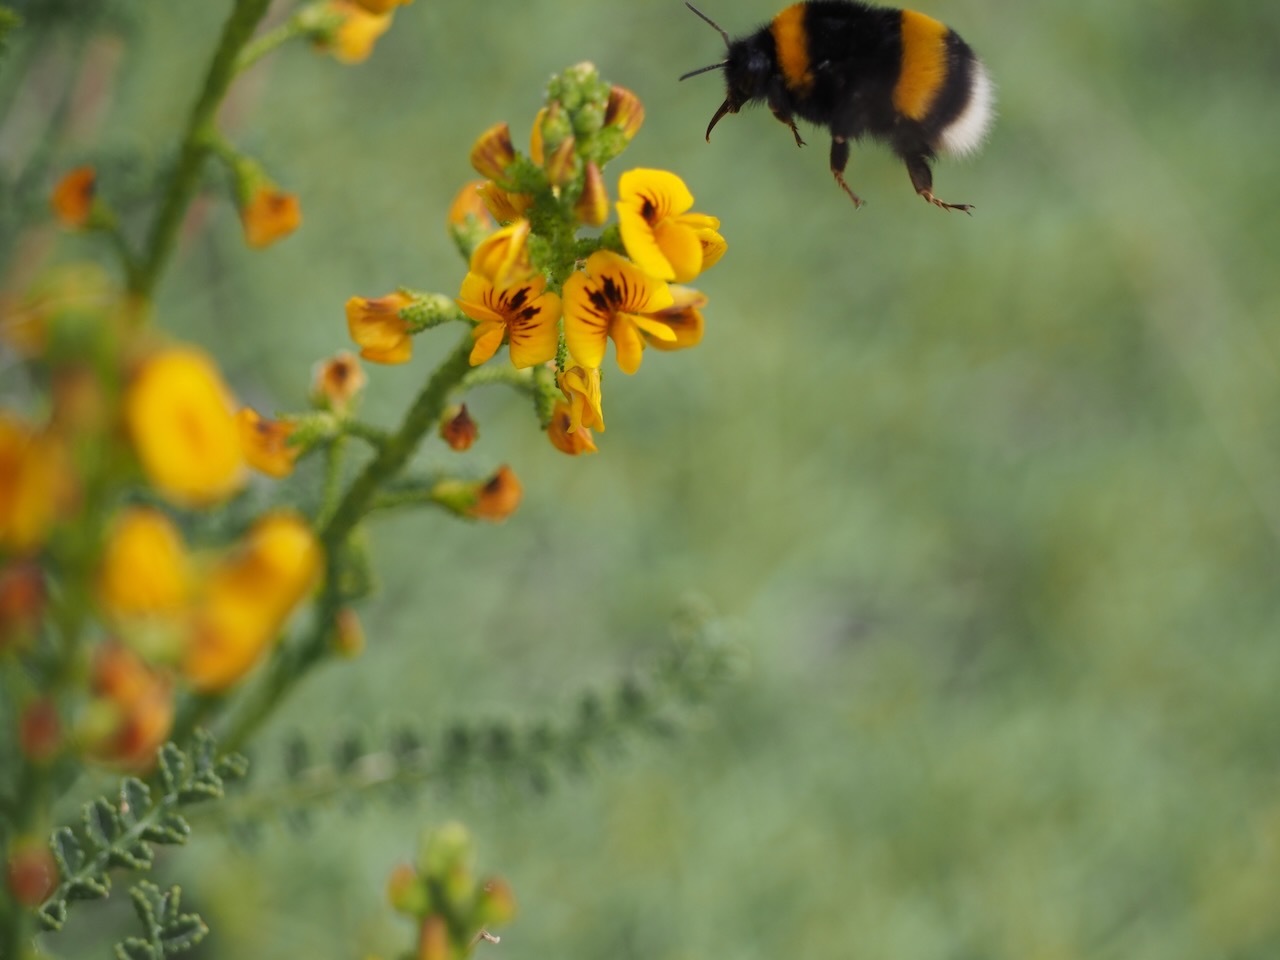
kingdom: Animalia
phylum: Arthropoda
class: Insecta
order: Hymenoptera
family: Apidae
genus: Bombus
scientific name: Bombus terrestris
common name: Buff-tailed bumblebee
